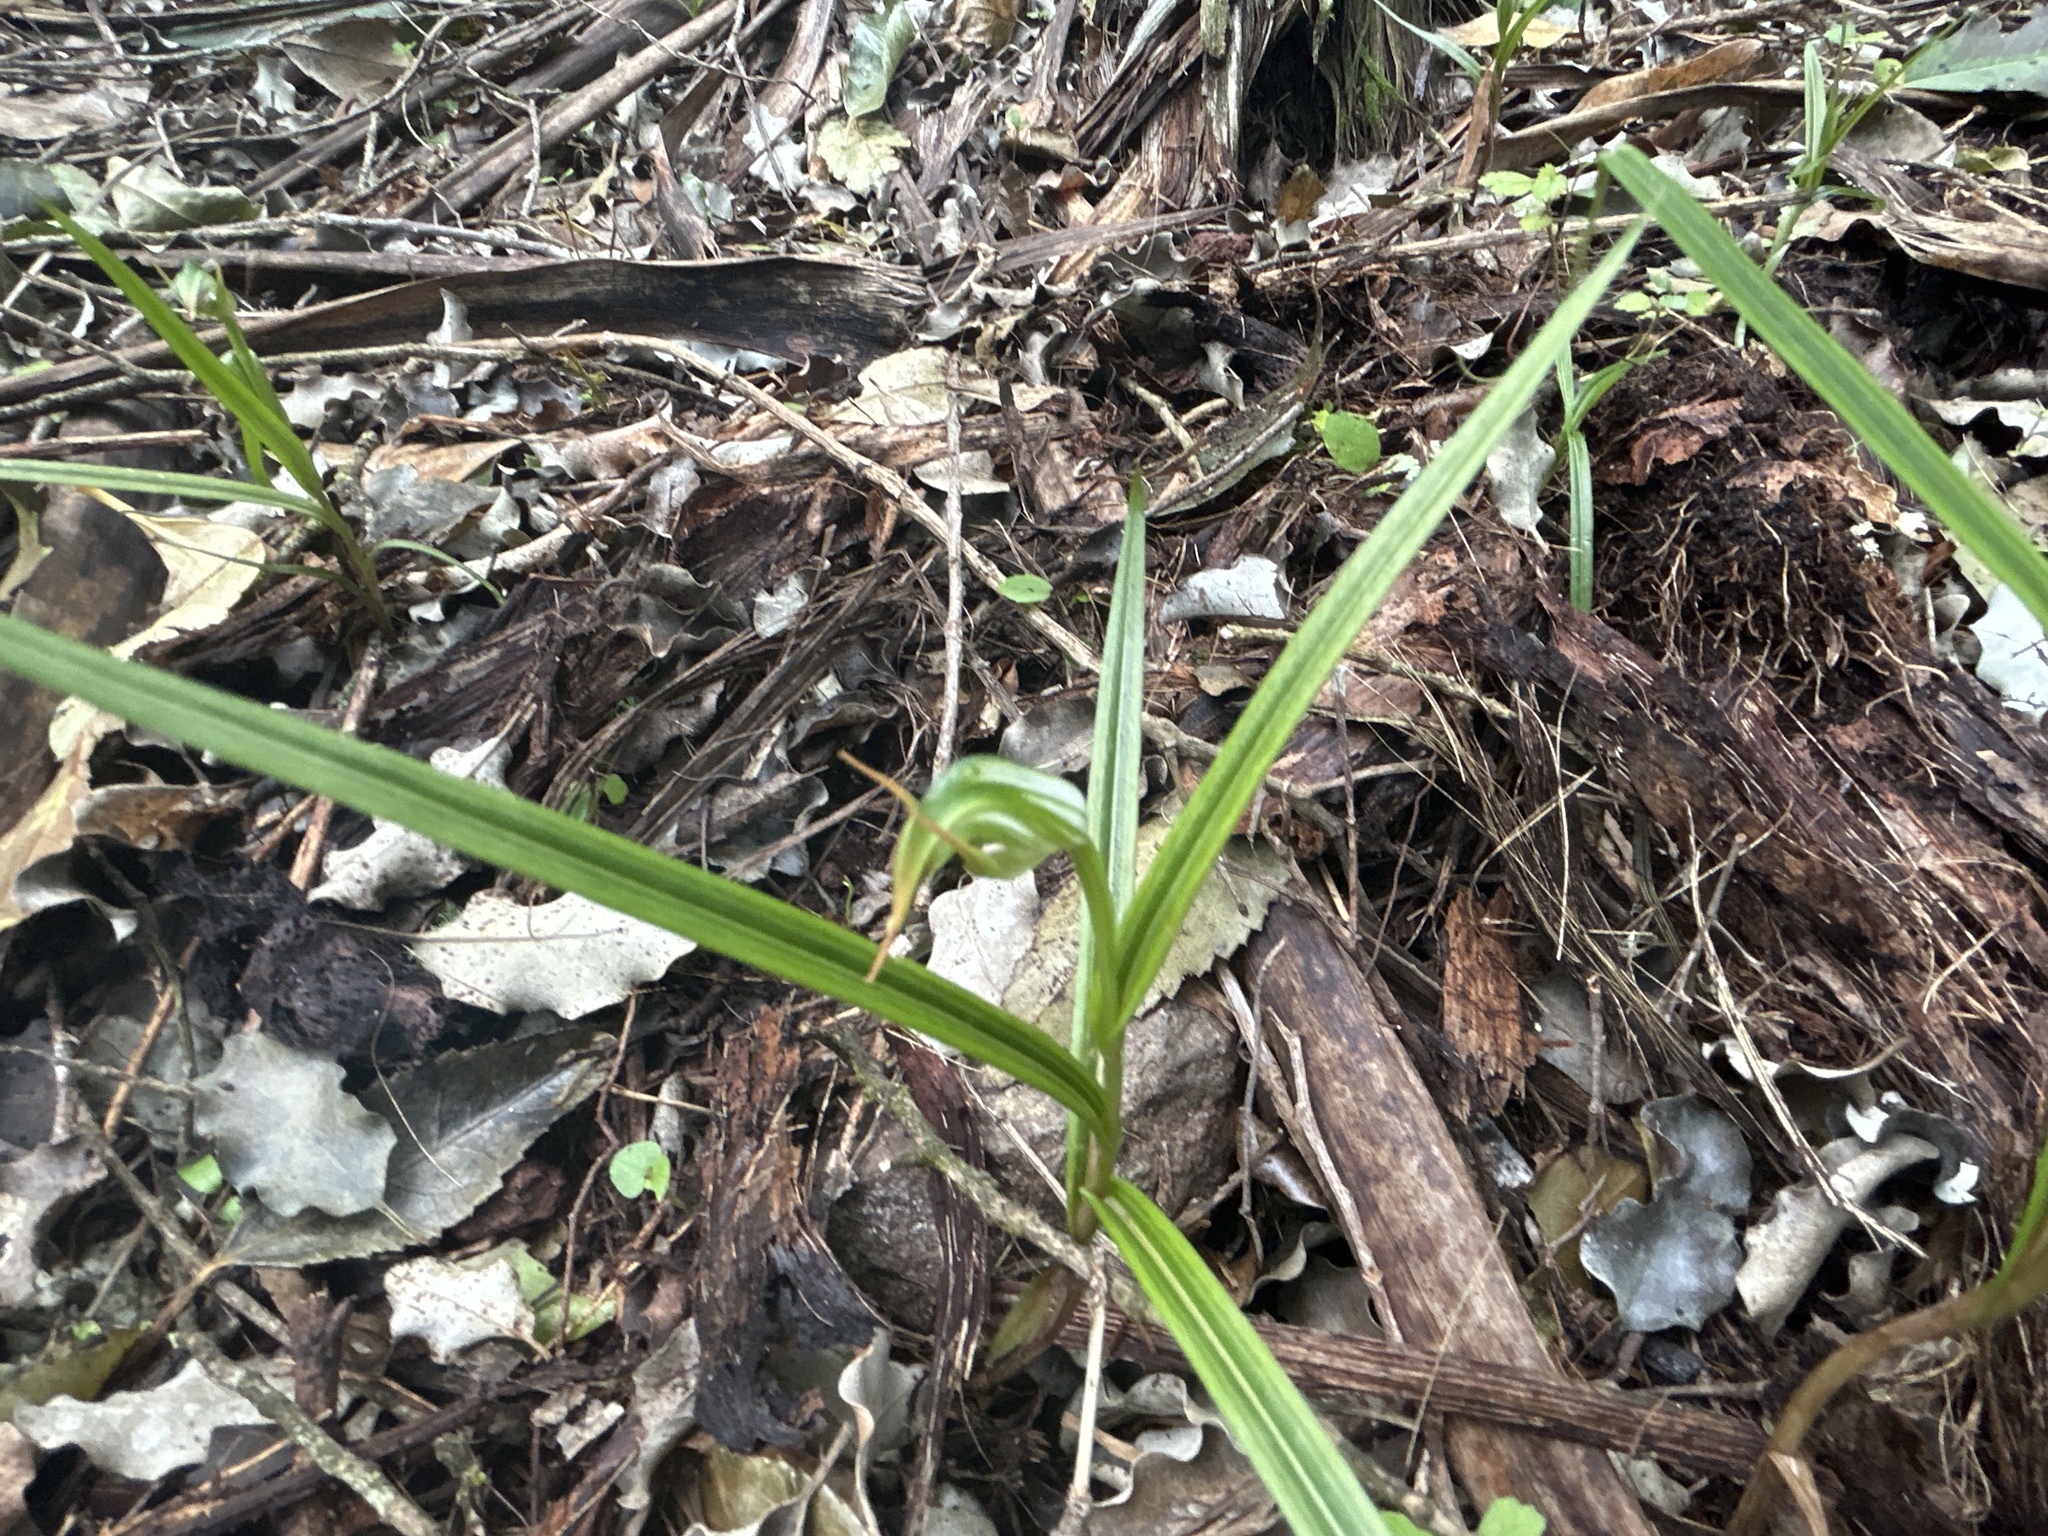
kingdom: Plantae
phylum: Tracheophyta
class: Liliopsida
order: Asparagales
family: Orchidaceae
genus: Pterostylis
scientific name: Pterostylis graminea
